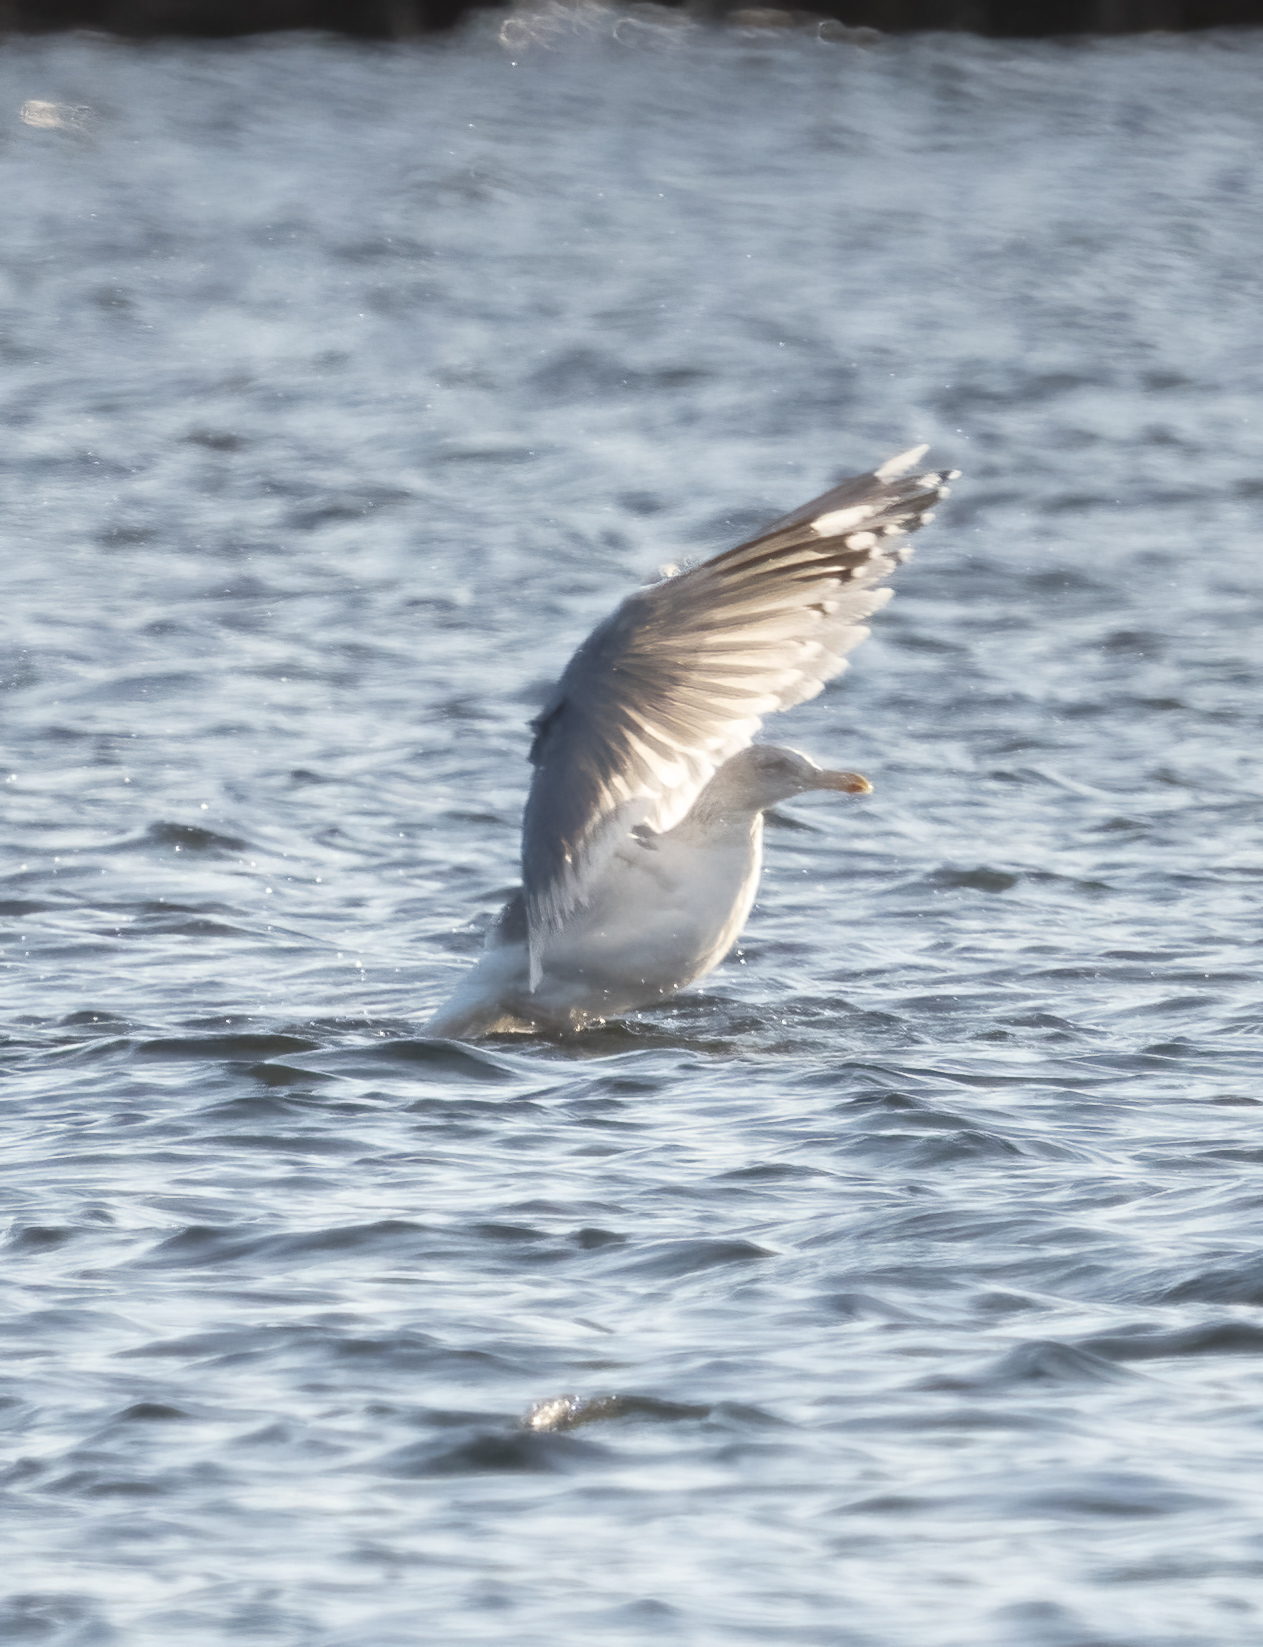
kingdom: Animalia
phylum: Chordata
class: Aves
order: Charadriiformes
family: Laridae
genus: Larus
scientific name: Larus argentatus
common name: Herring gull
